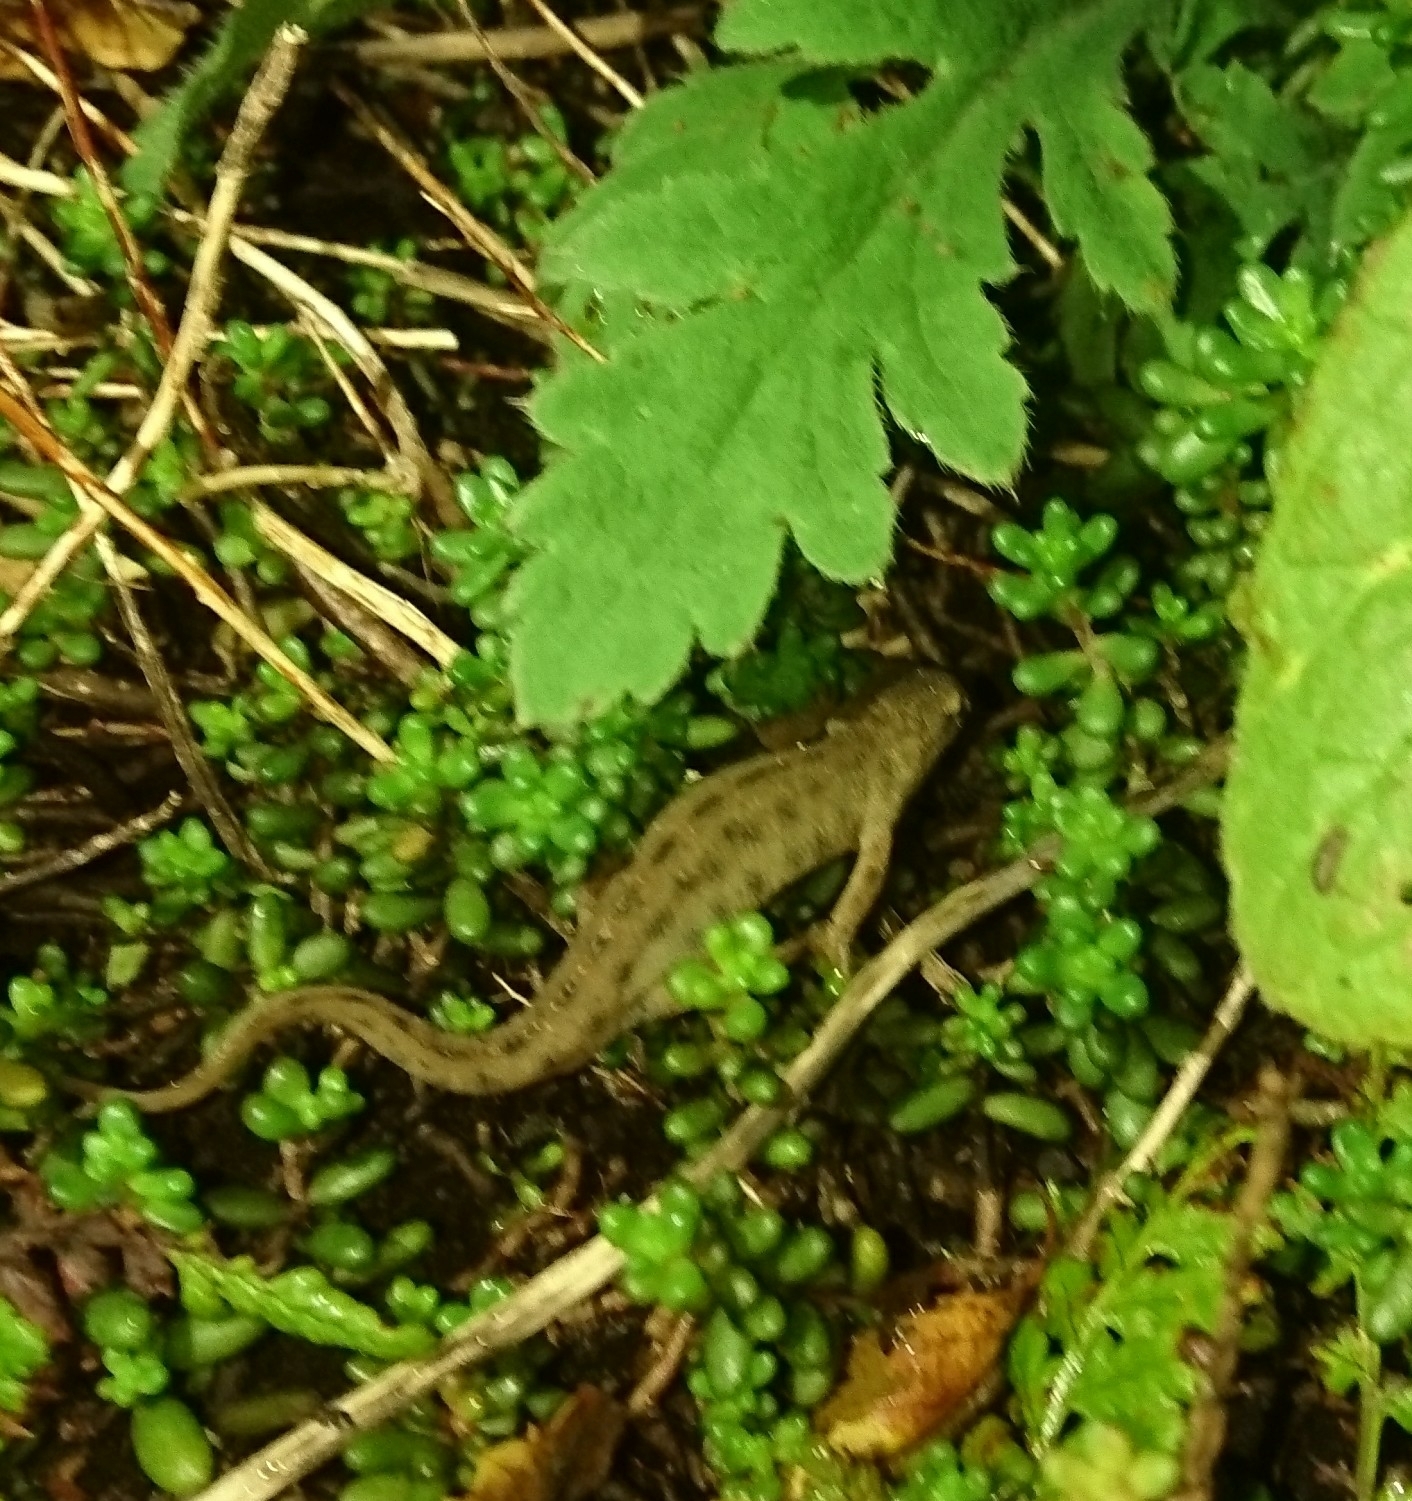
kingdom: Animalia
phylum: Chordata
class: Amphibia
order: Caudata
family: Salamandridae
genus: Lissotriton
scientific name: Lissotriton vulgaris
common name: Smooth newt
